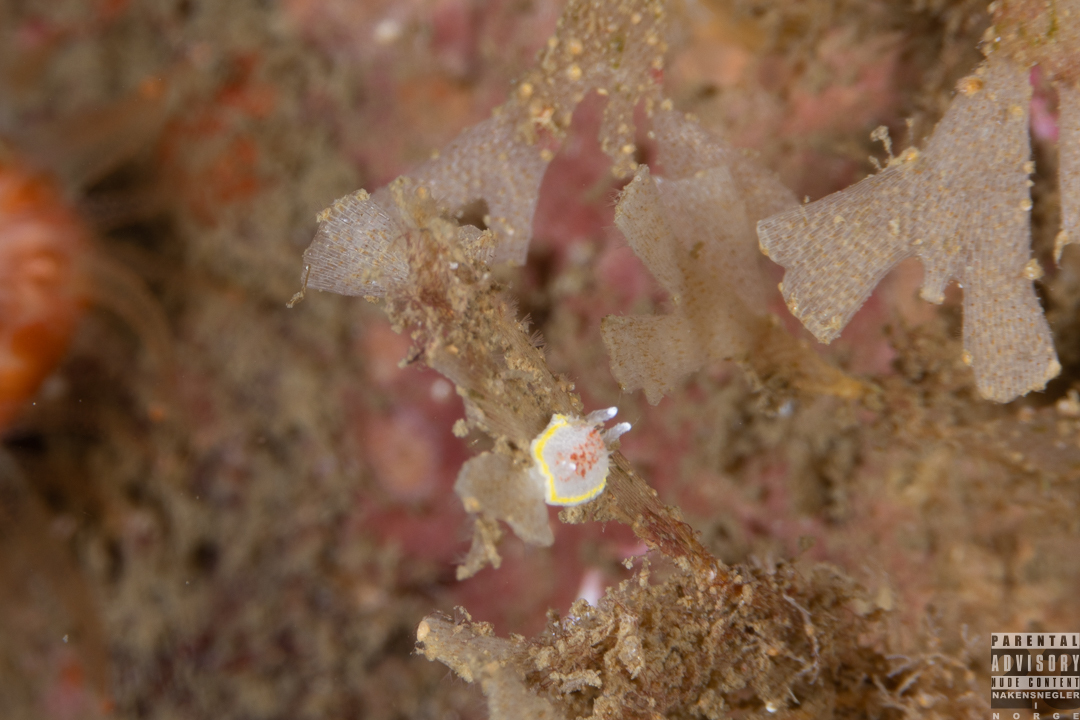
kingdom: Animalia
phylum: Mollusca
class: Gastropoda
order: Nudibranchia
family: Calycidorididae
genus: Diaphorodoris
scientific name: Diaphorodoris luteocincta
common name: Fried egg nudibranch
